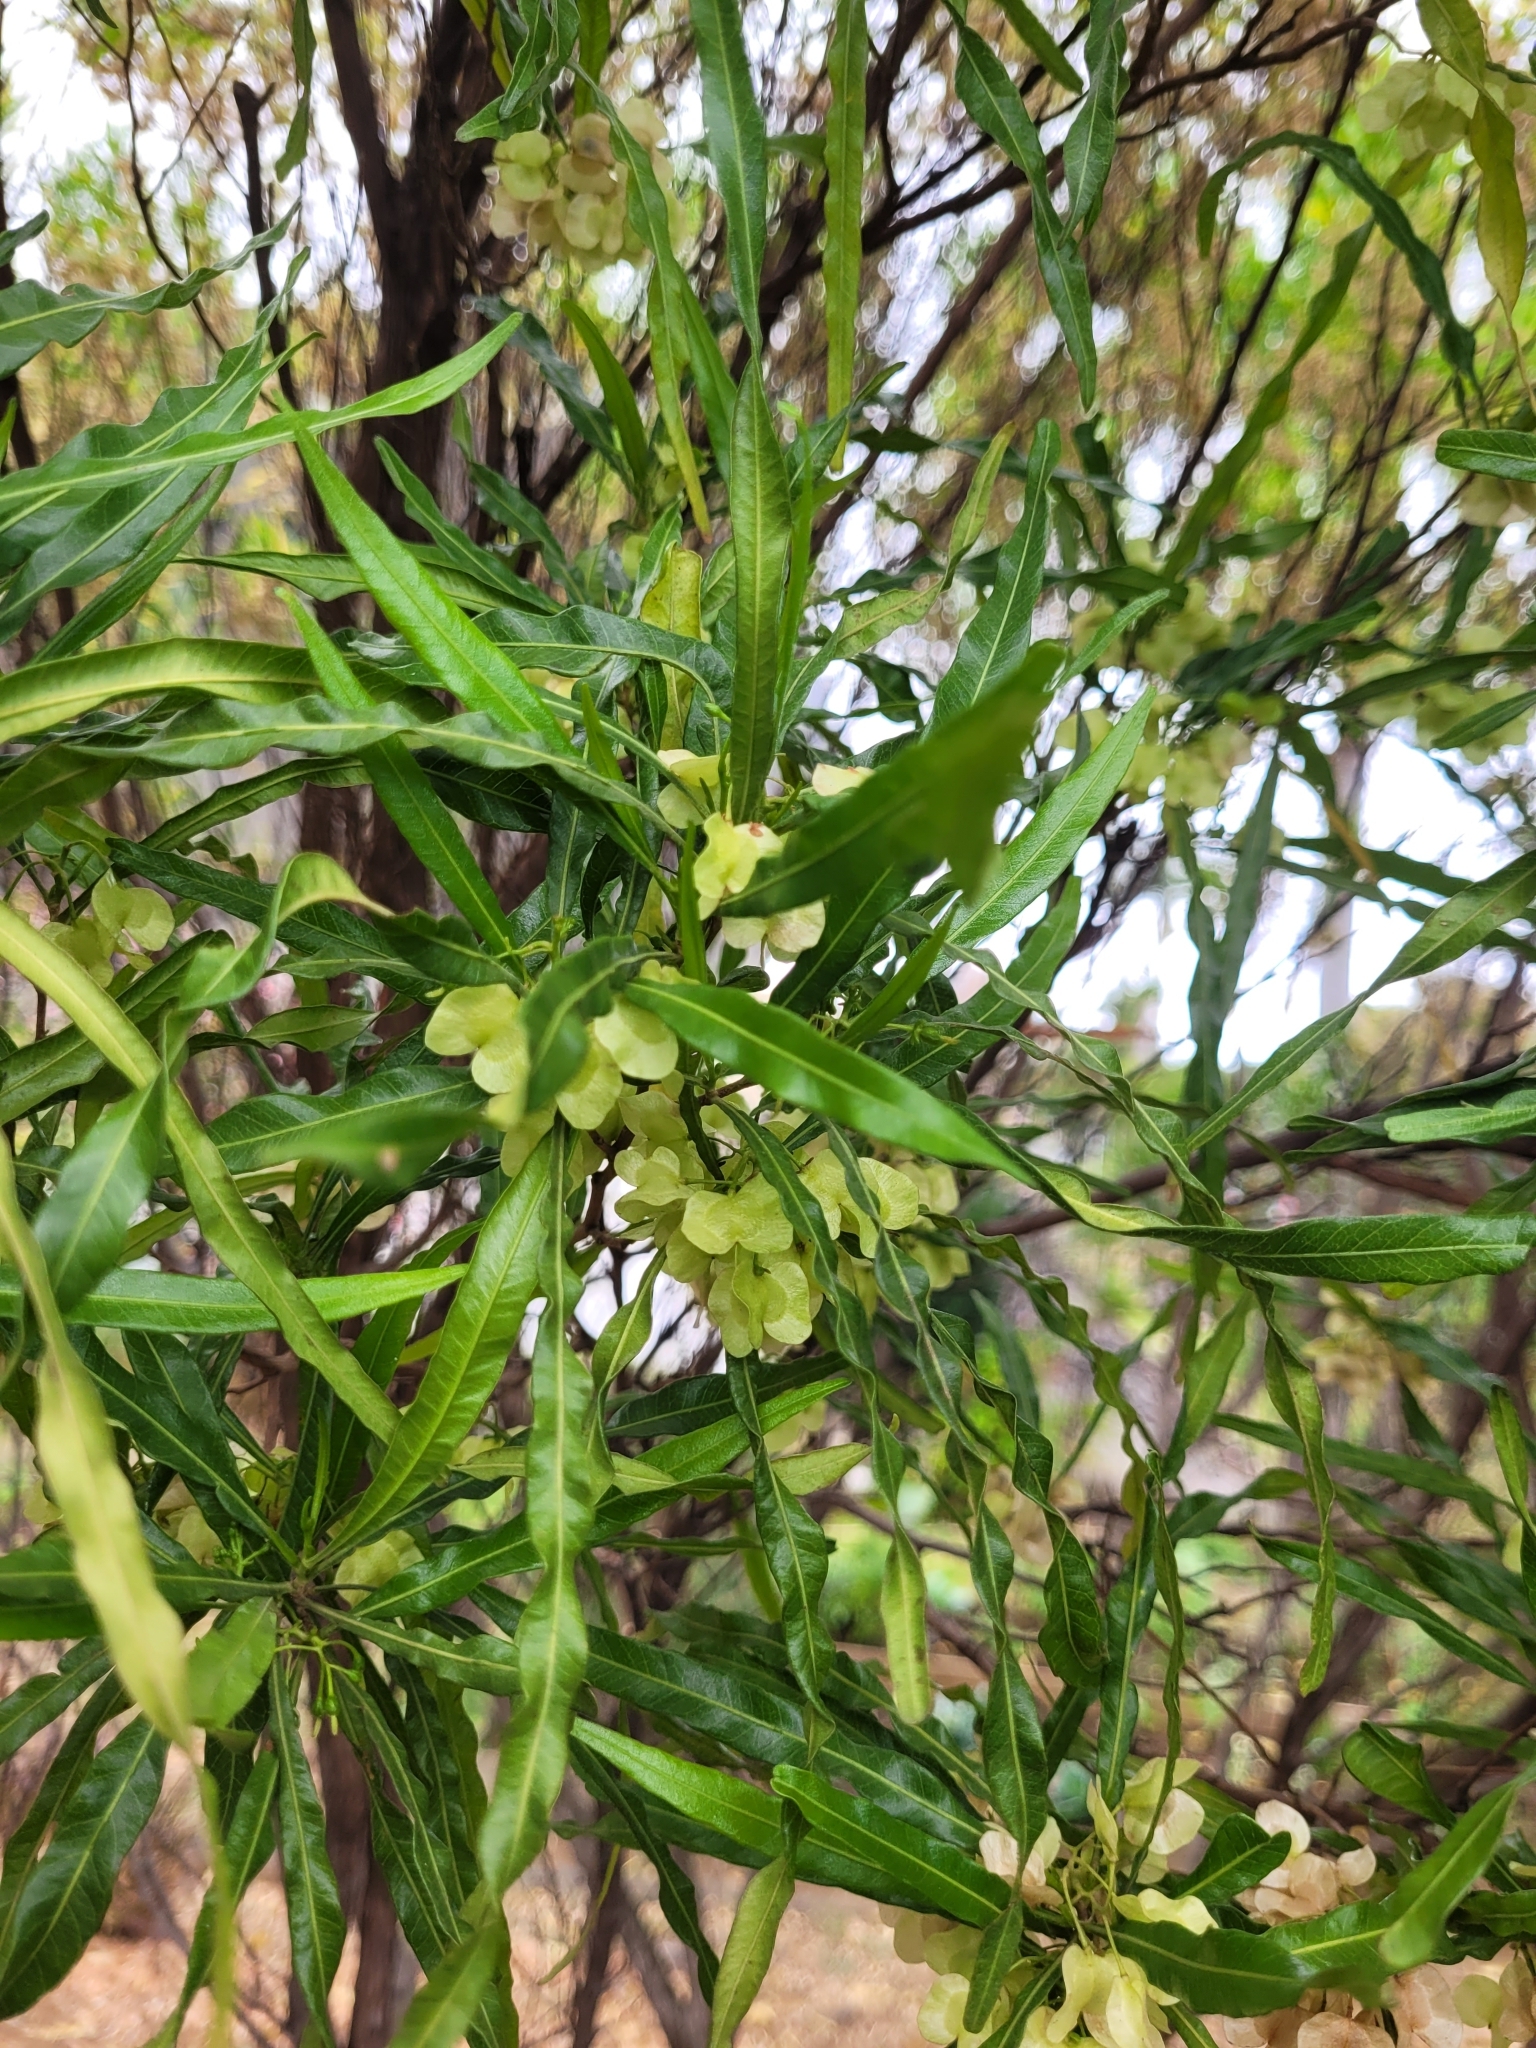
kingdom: Plantae
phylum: Tracheophyta
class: Magnoliopsida
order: Sapindales
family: Sapindaceae
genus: Dodonaea
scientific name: Dodonaea viscosa
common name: Hopbush
